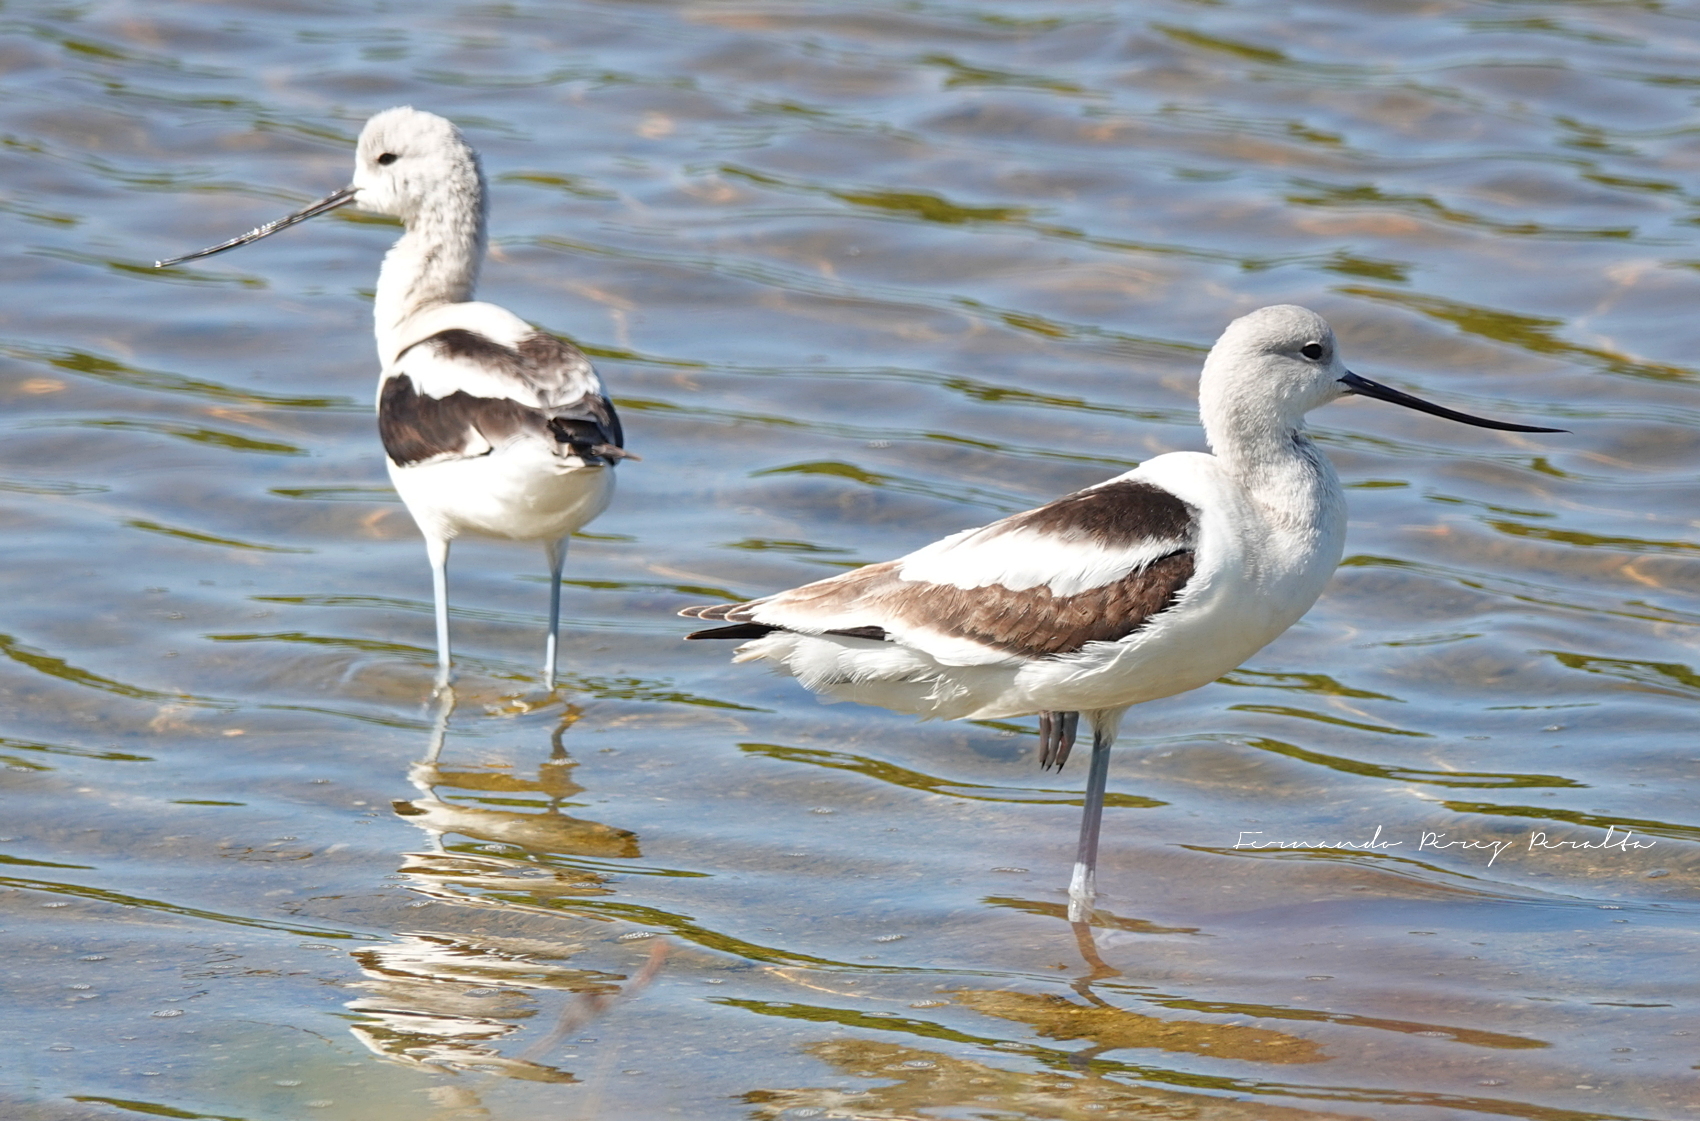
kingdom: Animalia
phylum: Chordata
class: Aves
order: Charadriiformes
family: Recurvirostridae
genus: Recurvirostra
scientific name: Recurvirostra americana
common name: American avocet
